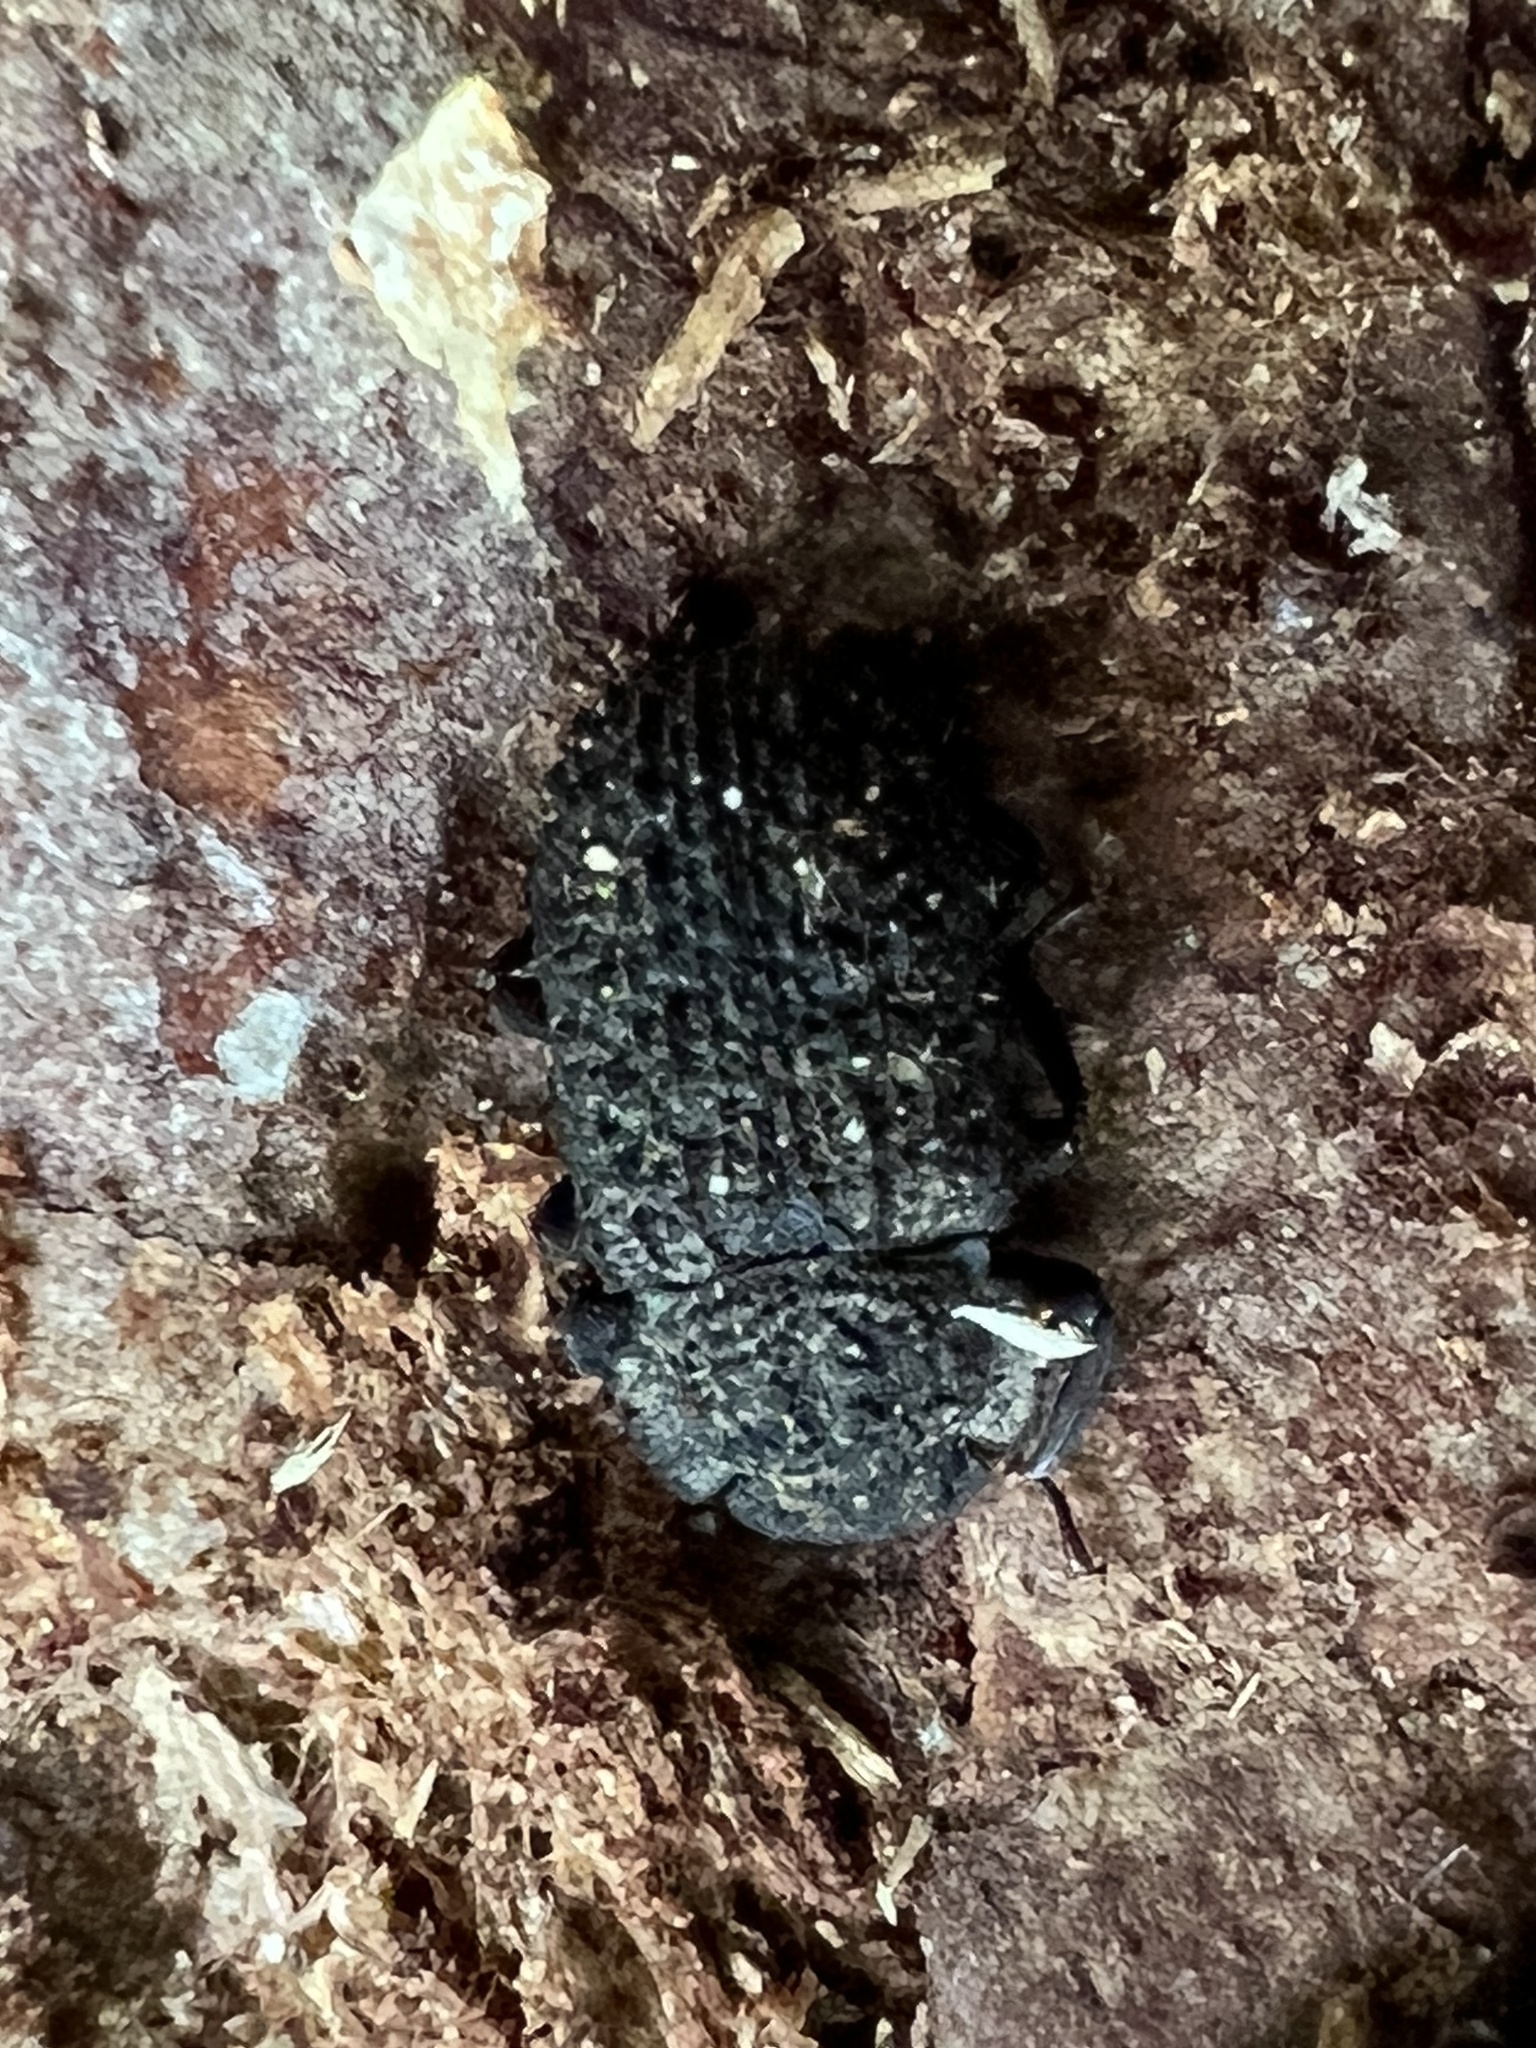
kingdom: Animalia
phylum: Arthropoda
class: Insecta
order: Coleoptera
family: Tenebrionidae
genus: Bolitophagus
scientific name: Bolitophagus corticola
